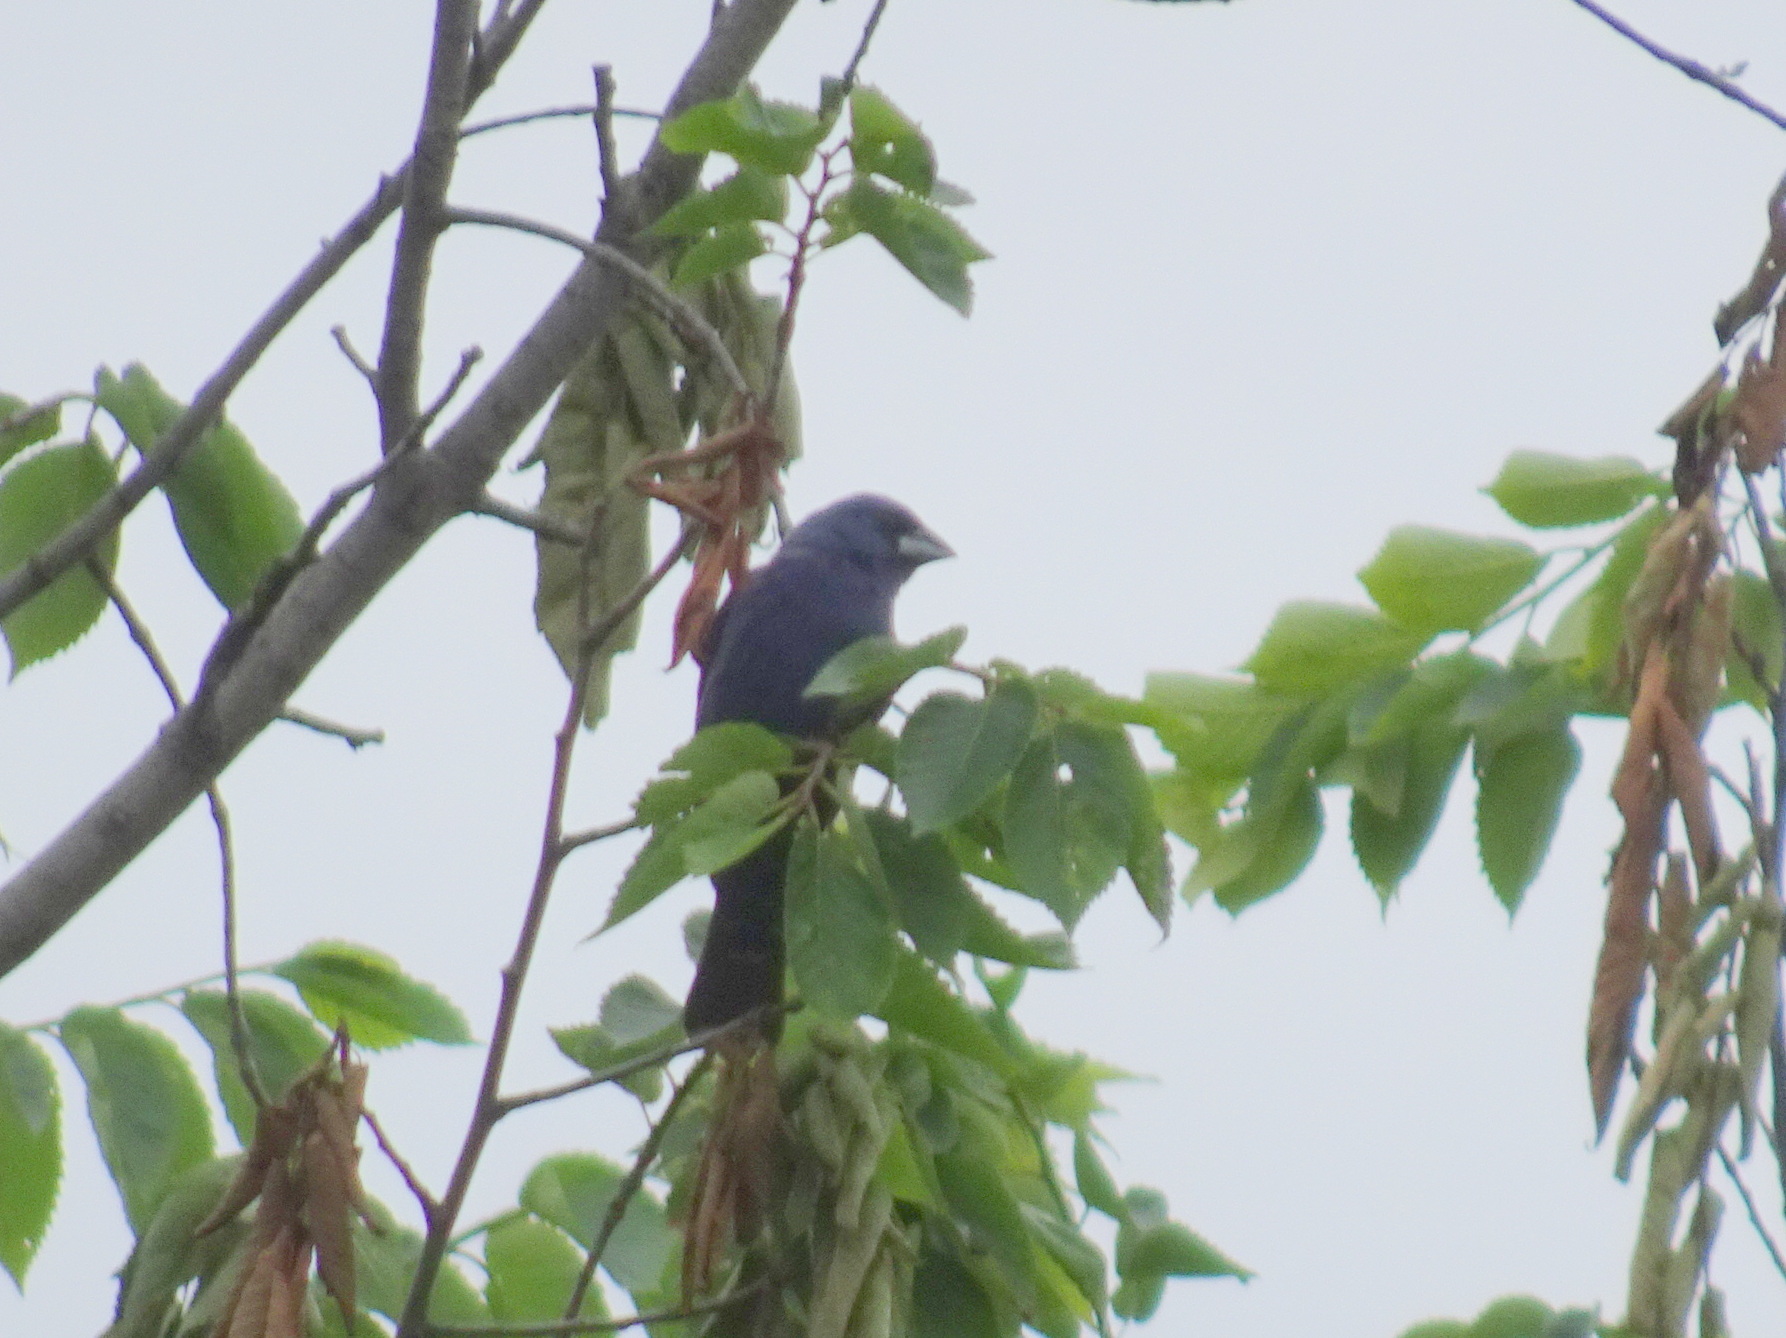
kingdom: Animalia
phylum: Chordata
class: Aves
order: Passeriformes
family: Cardinalidae
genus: Passerina
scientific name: Passerina caerulea
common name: Blue grosbeak
